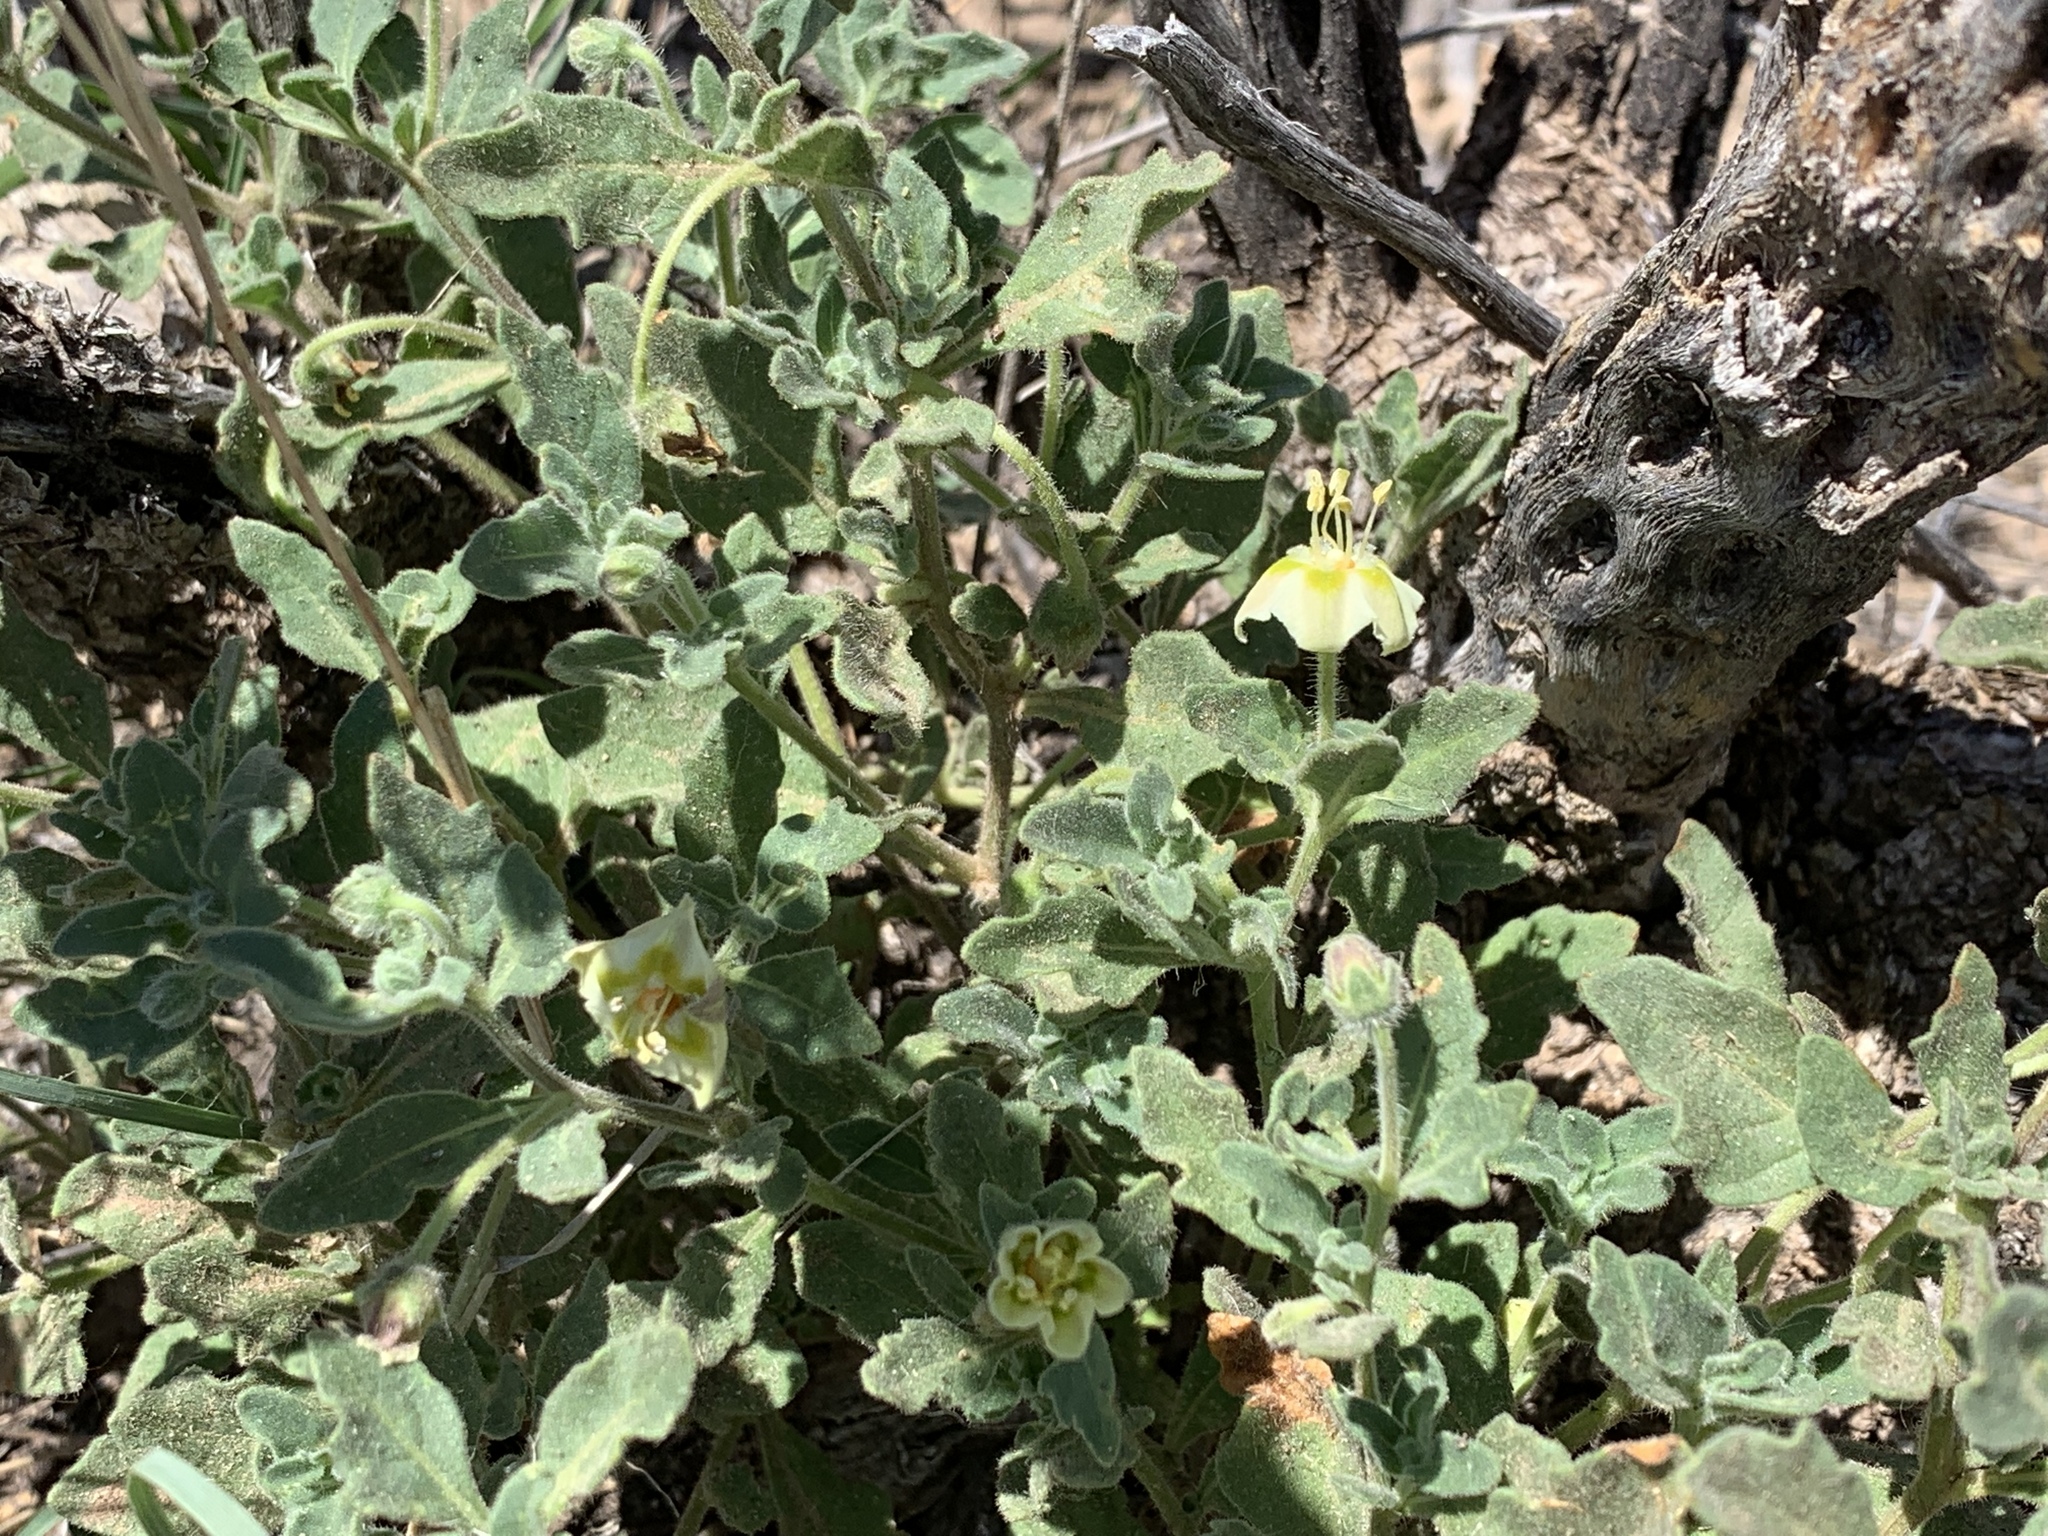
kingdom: Plantae
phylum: Tracheophyta
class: Magnoliopsida
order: Solanales
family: Solanaceae
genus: Chamaesaracha
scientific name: Chamaesaracha pallida
